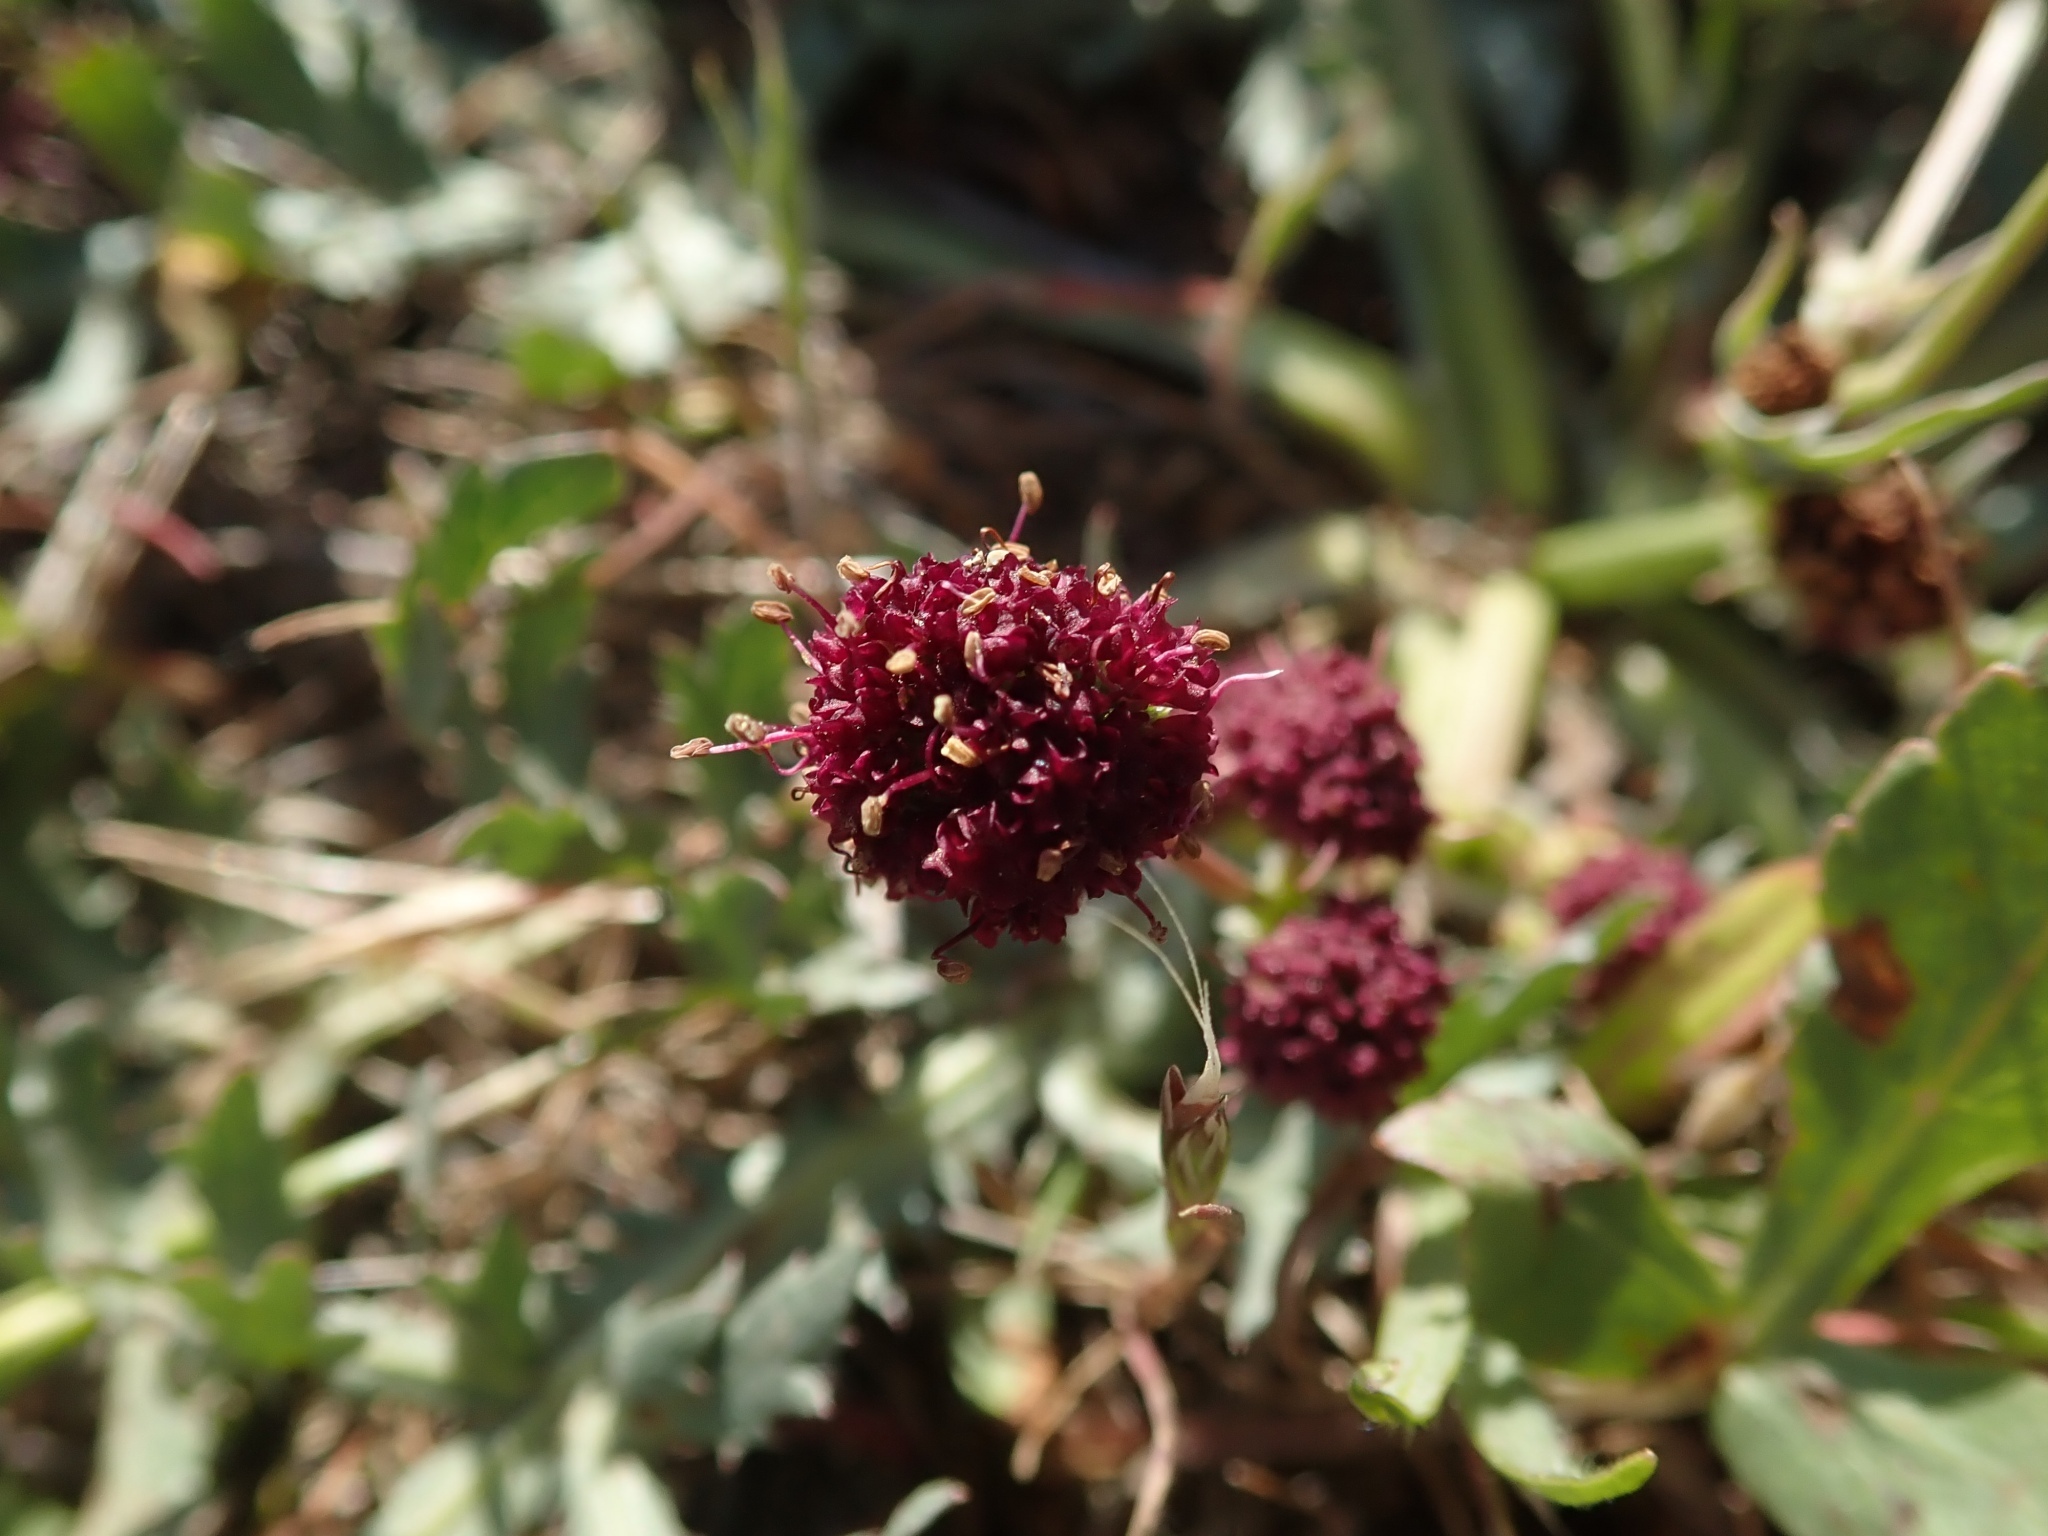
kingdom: Plantae
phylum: Tracheophyta
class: Magnoliopsida
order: Apiales
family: Apiaceae
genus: Sanicula
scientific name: Sanicula bipinnatifida
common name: Shoe-buttons
